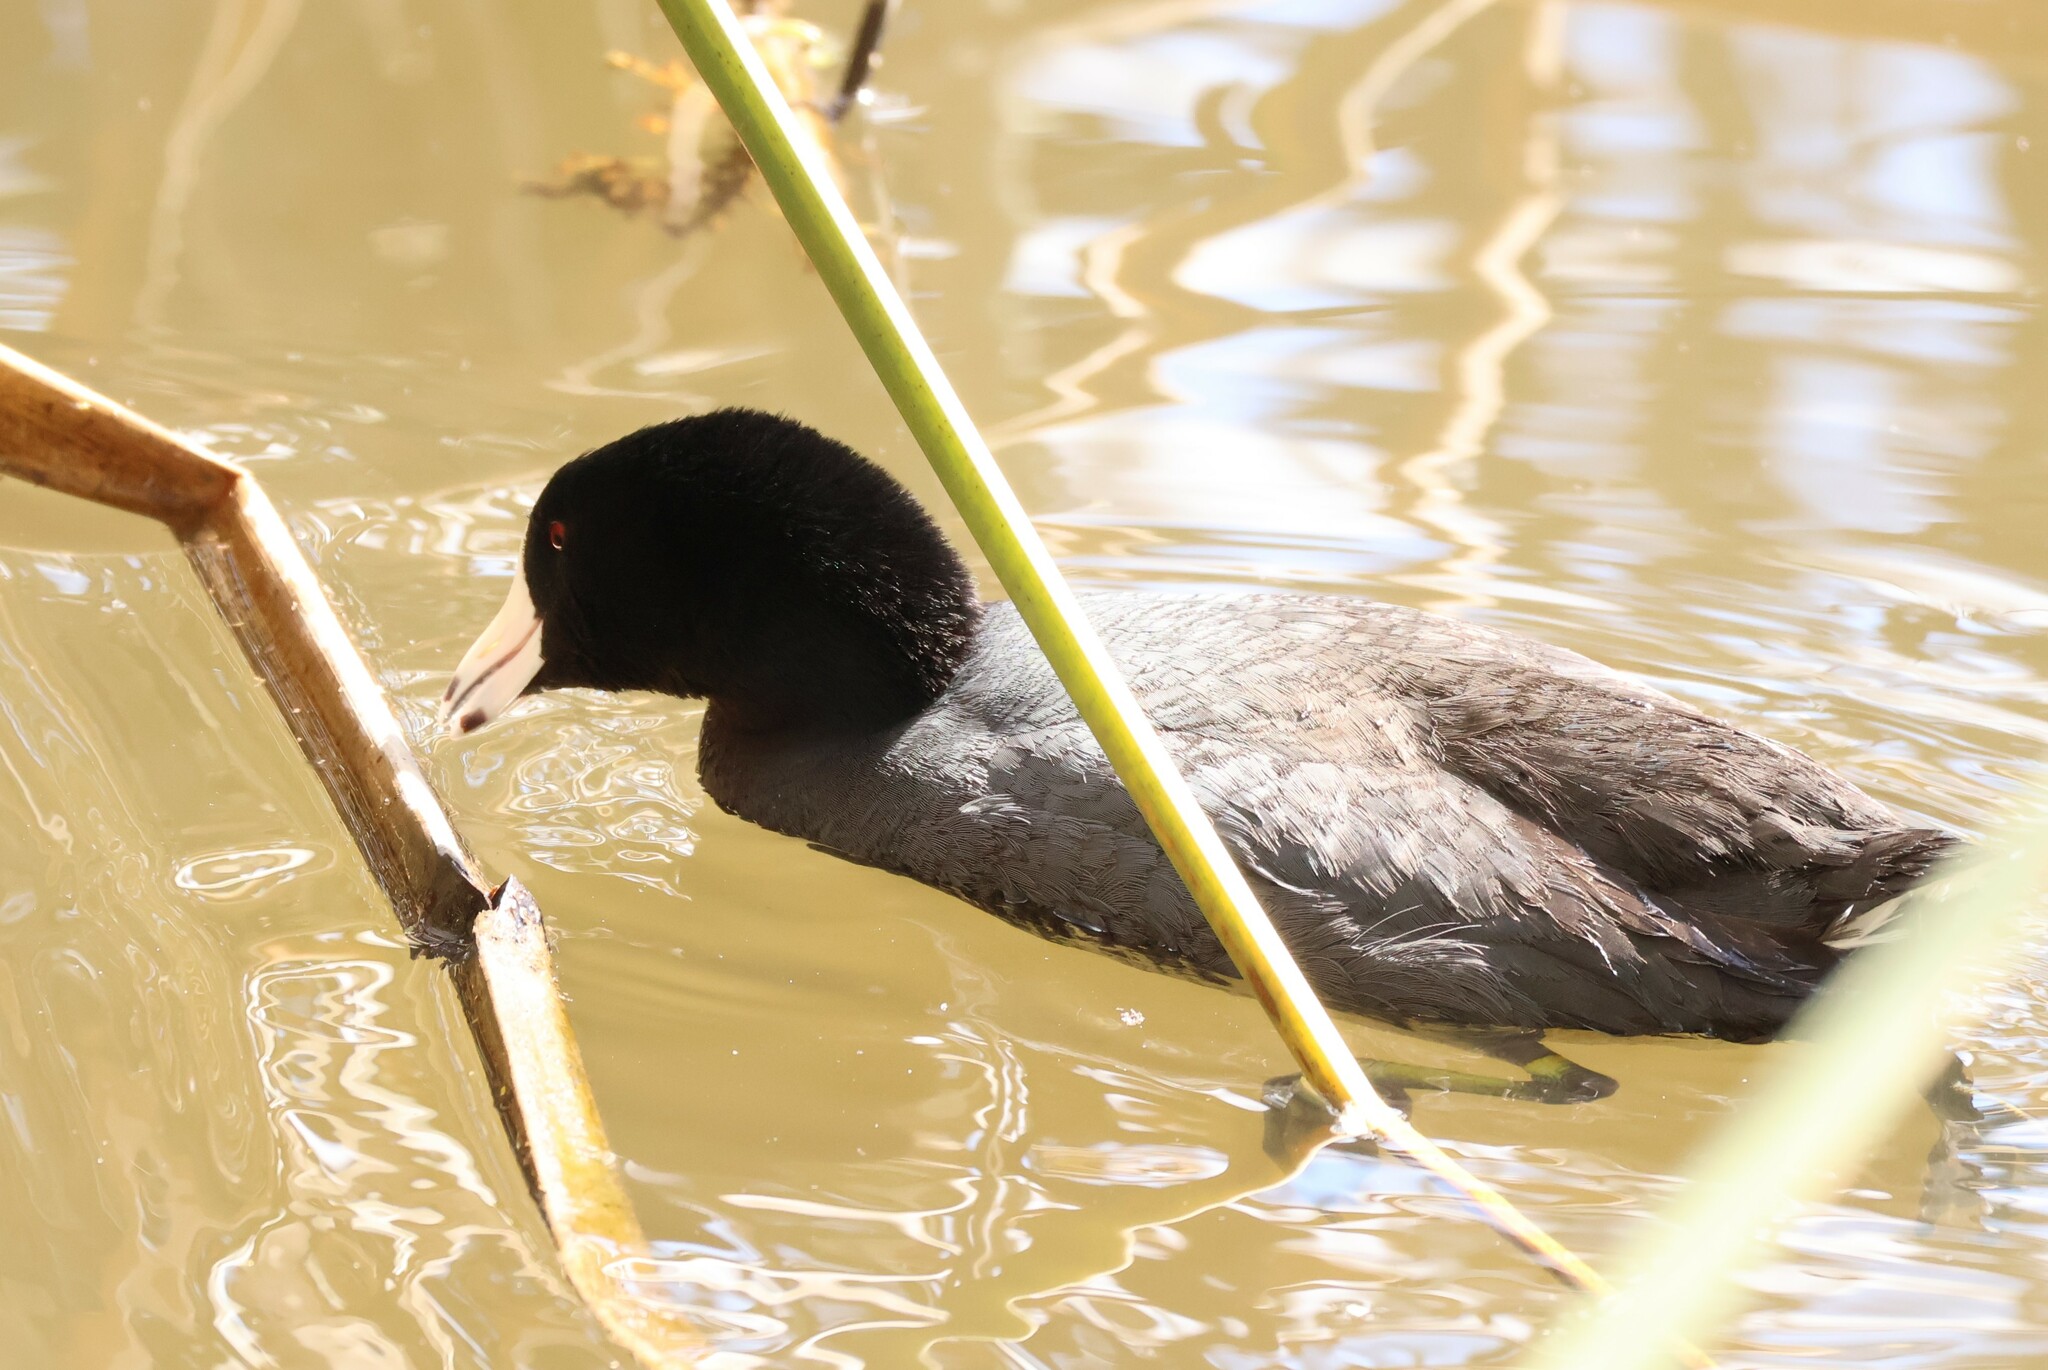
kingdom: Animalia
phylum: Chordata
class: Aves
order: Gruiformes
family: Rallidae
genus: Fulica
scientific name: Fulica americana
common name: American coot
